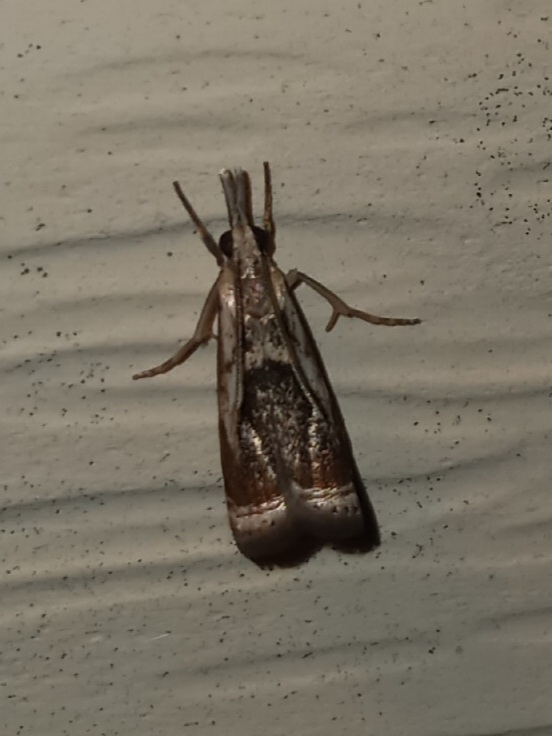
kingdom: Animalia
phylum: Arthropoda
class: Insecta
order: Lepidoptera
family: Crambidae
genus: Microcrambus
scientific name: Microcrambus elegans
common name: Elegant grass-veneer
